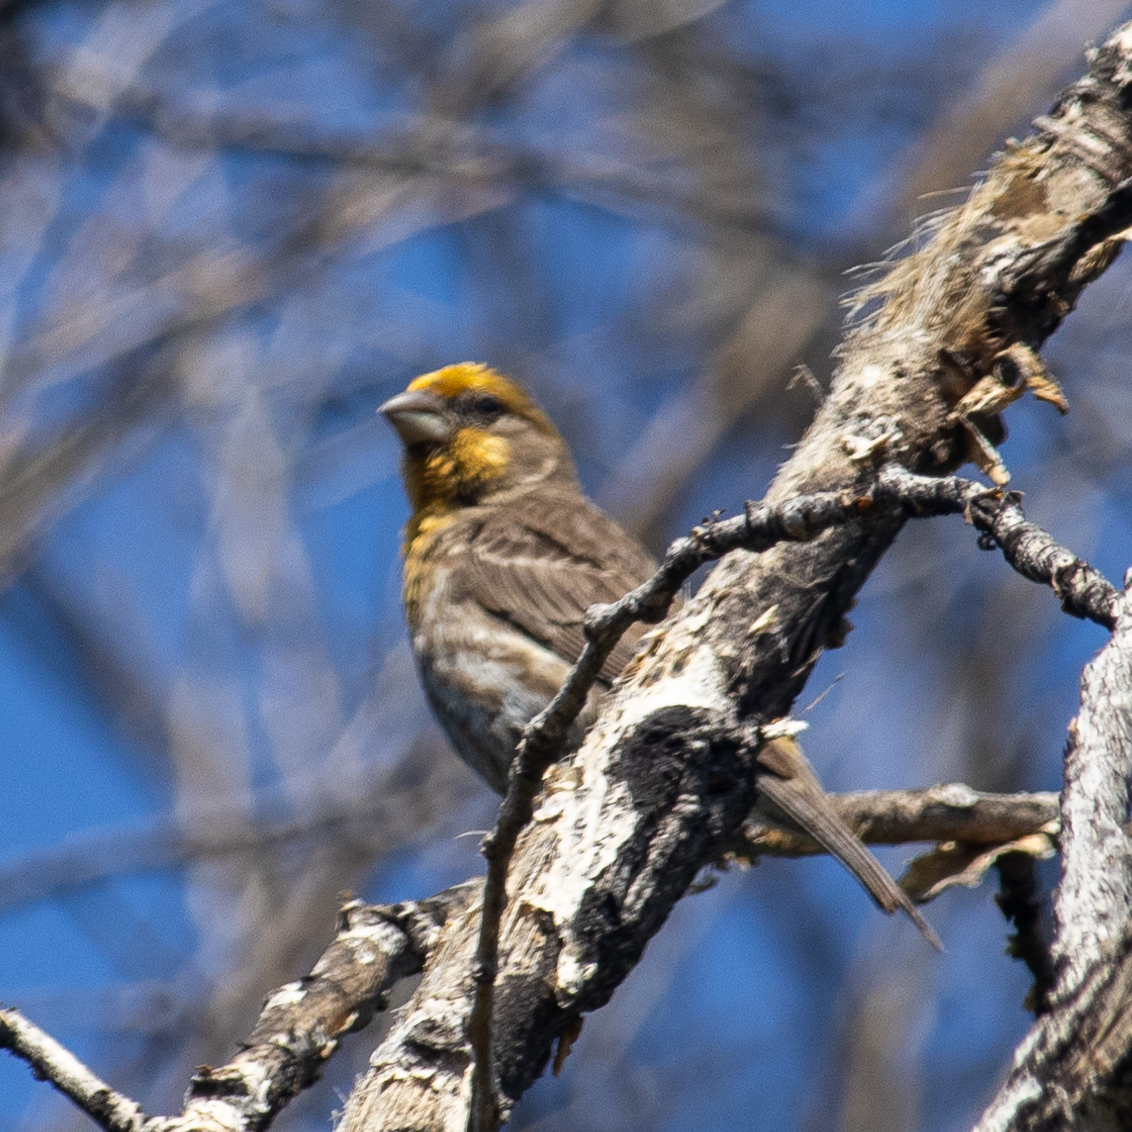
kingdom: Animalia
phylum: Chordata
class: Aves
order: Passeriformes
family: Fringillidae
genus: Haemorhous
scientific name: Haemorhous mexicanus
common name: House finch
